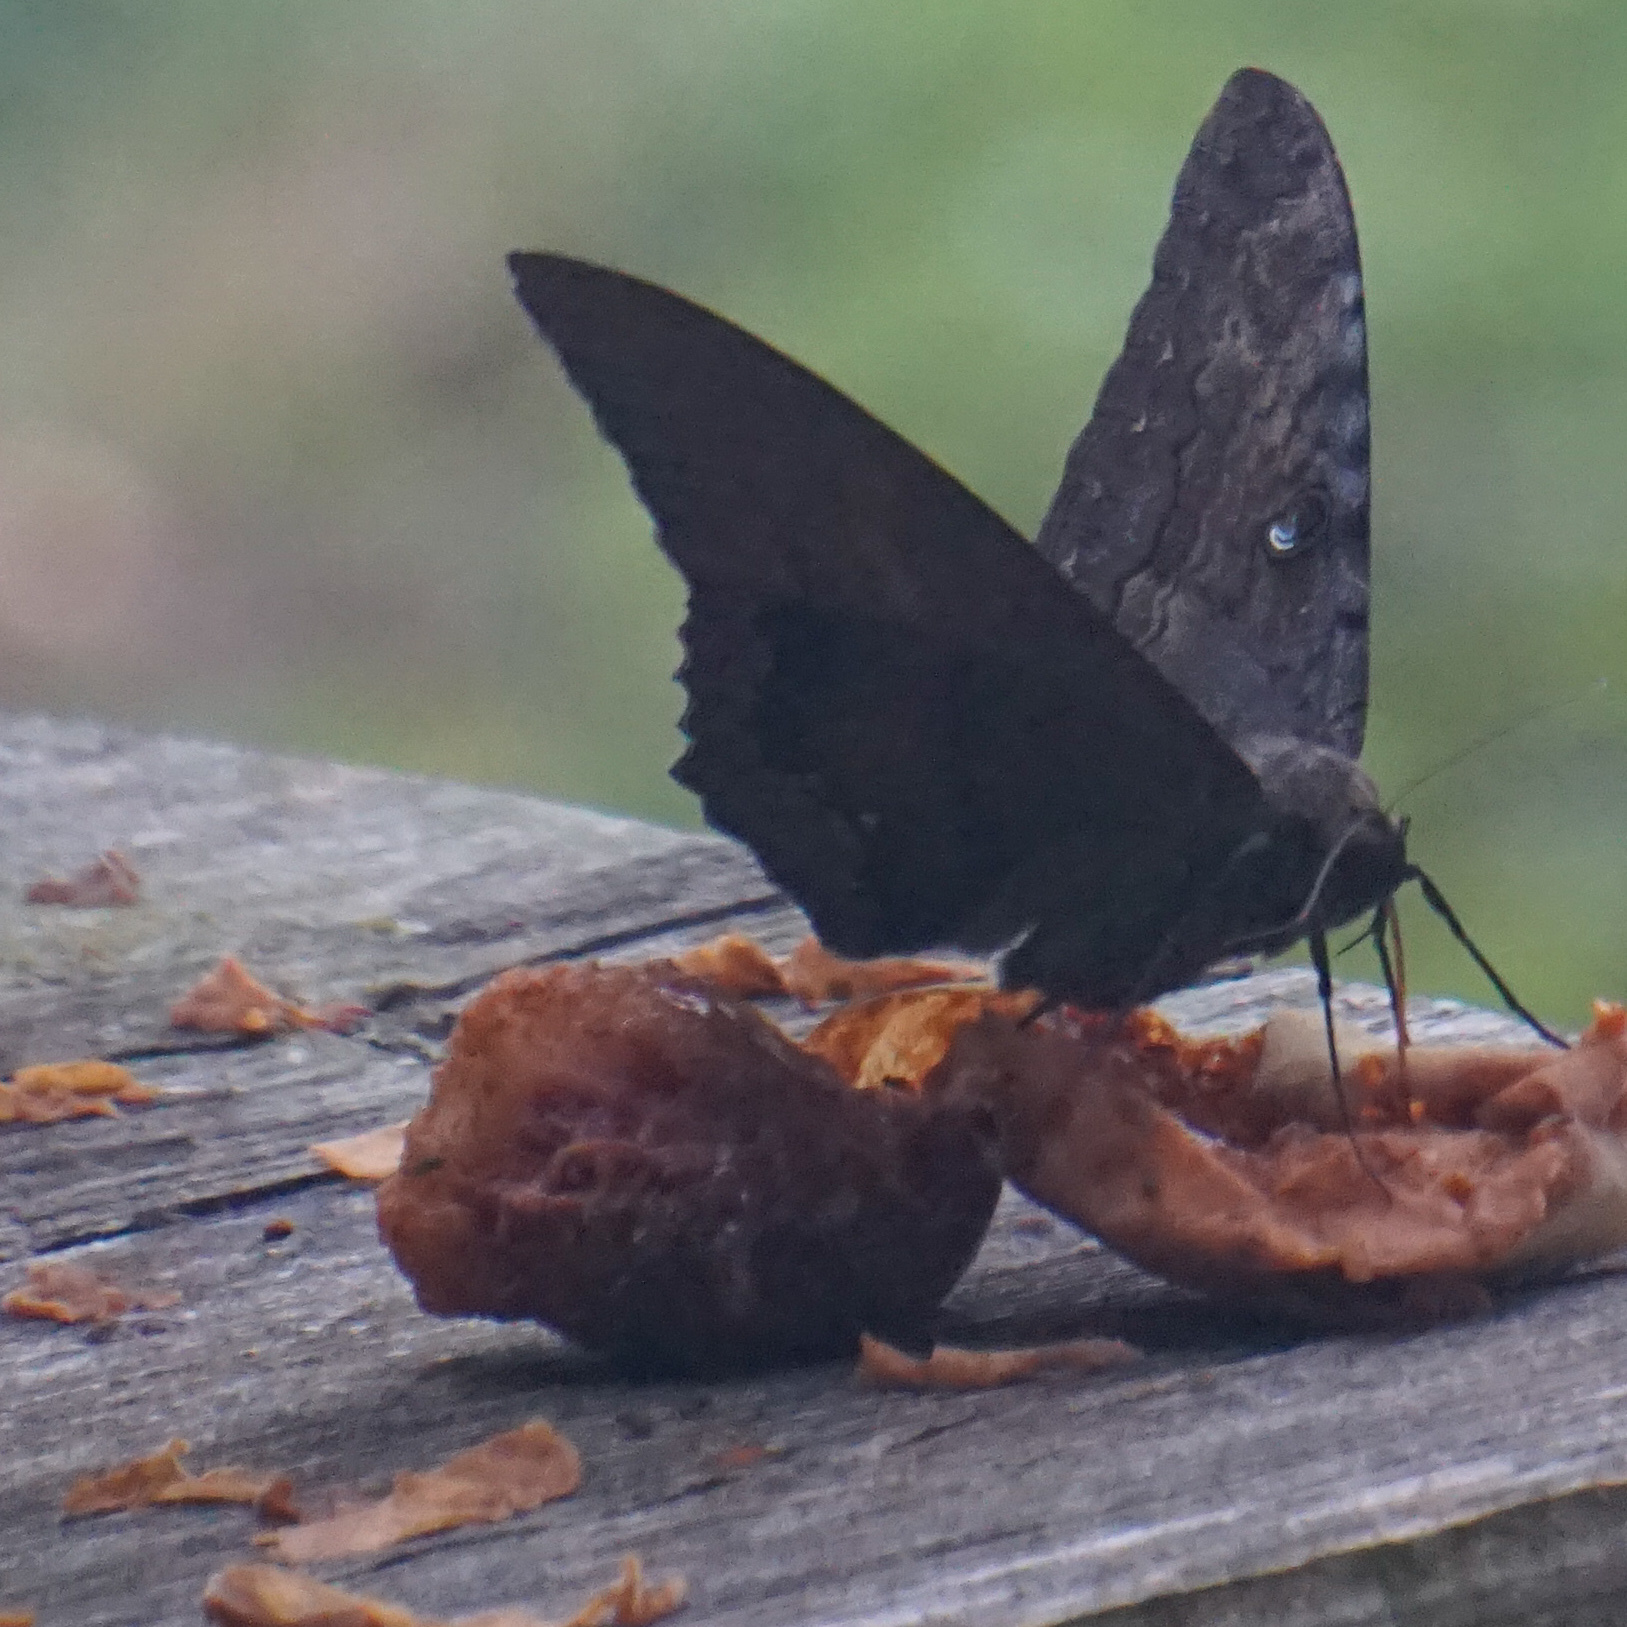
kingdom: Animalia
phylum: Arthropoda
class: Insecta
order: Lepidoptera
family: Erebidae
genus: Ascalapha
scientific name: Ascalapha odorata
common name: Black witch
